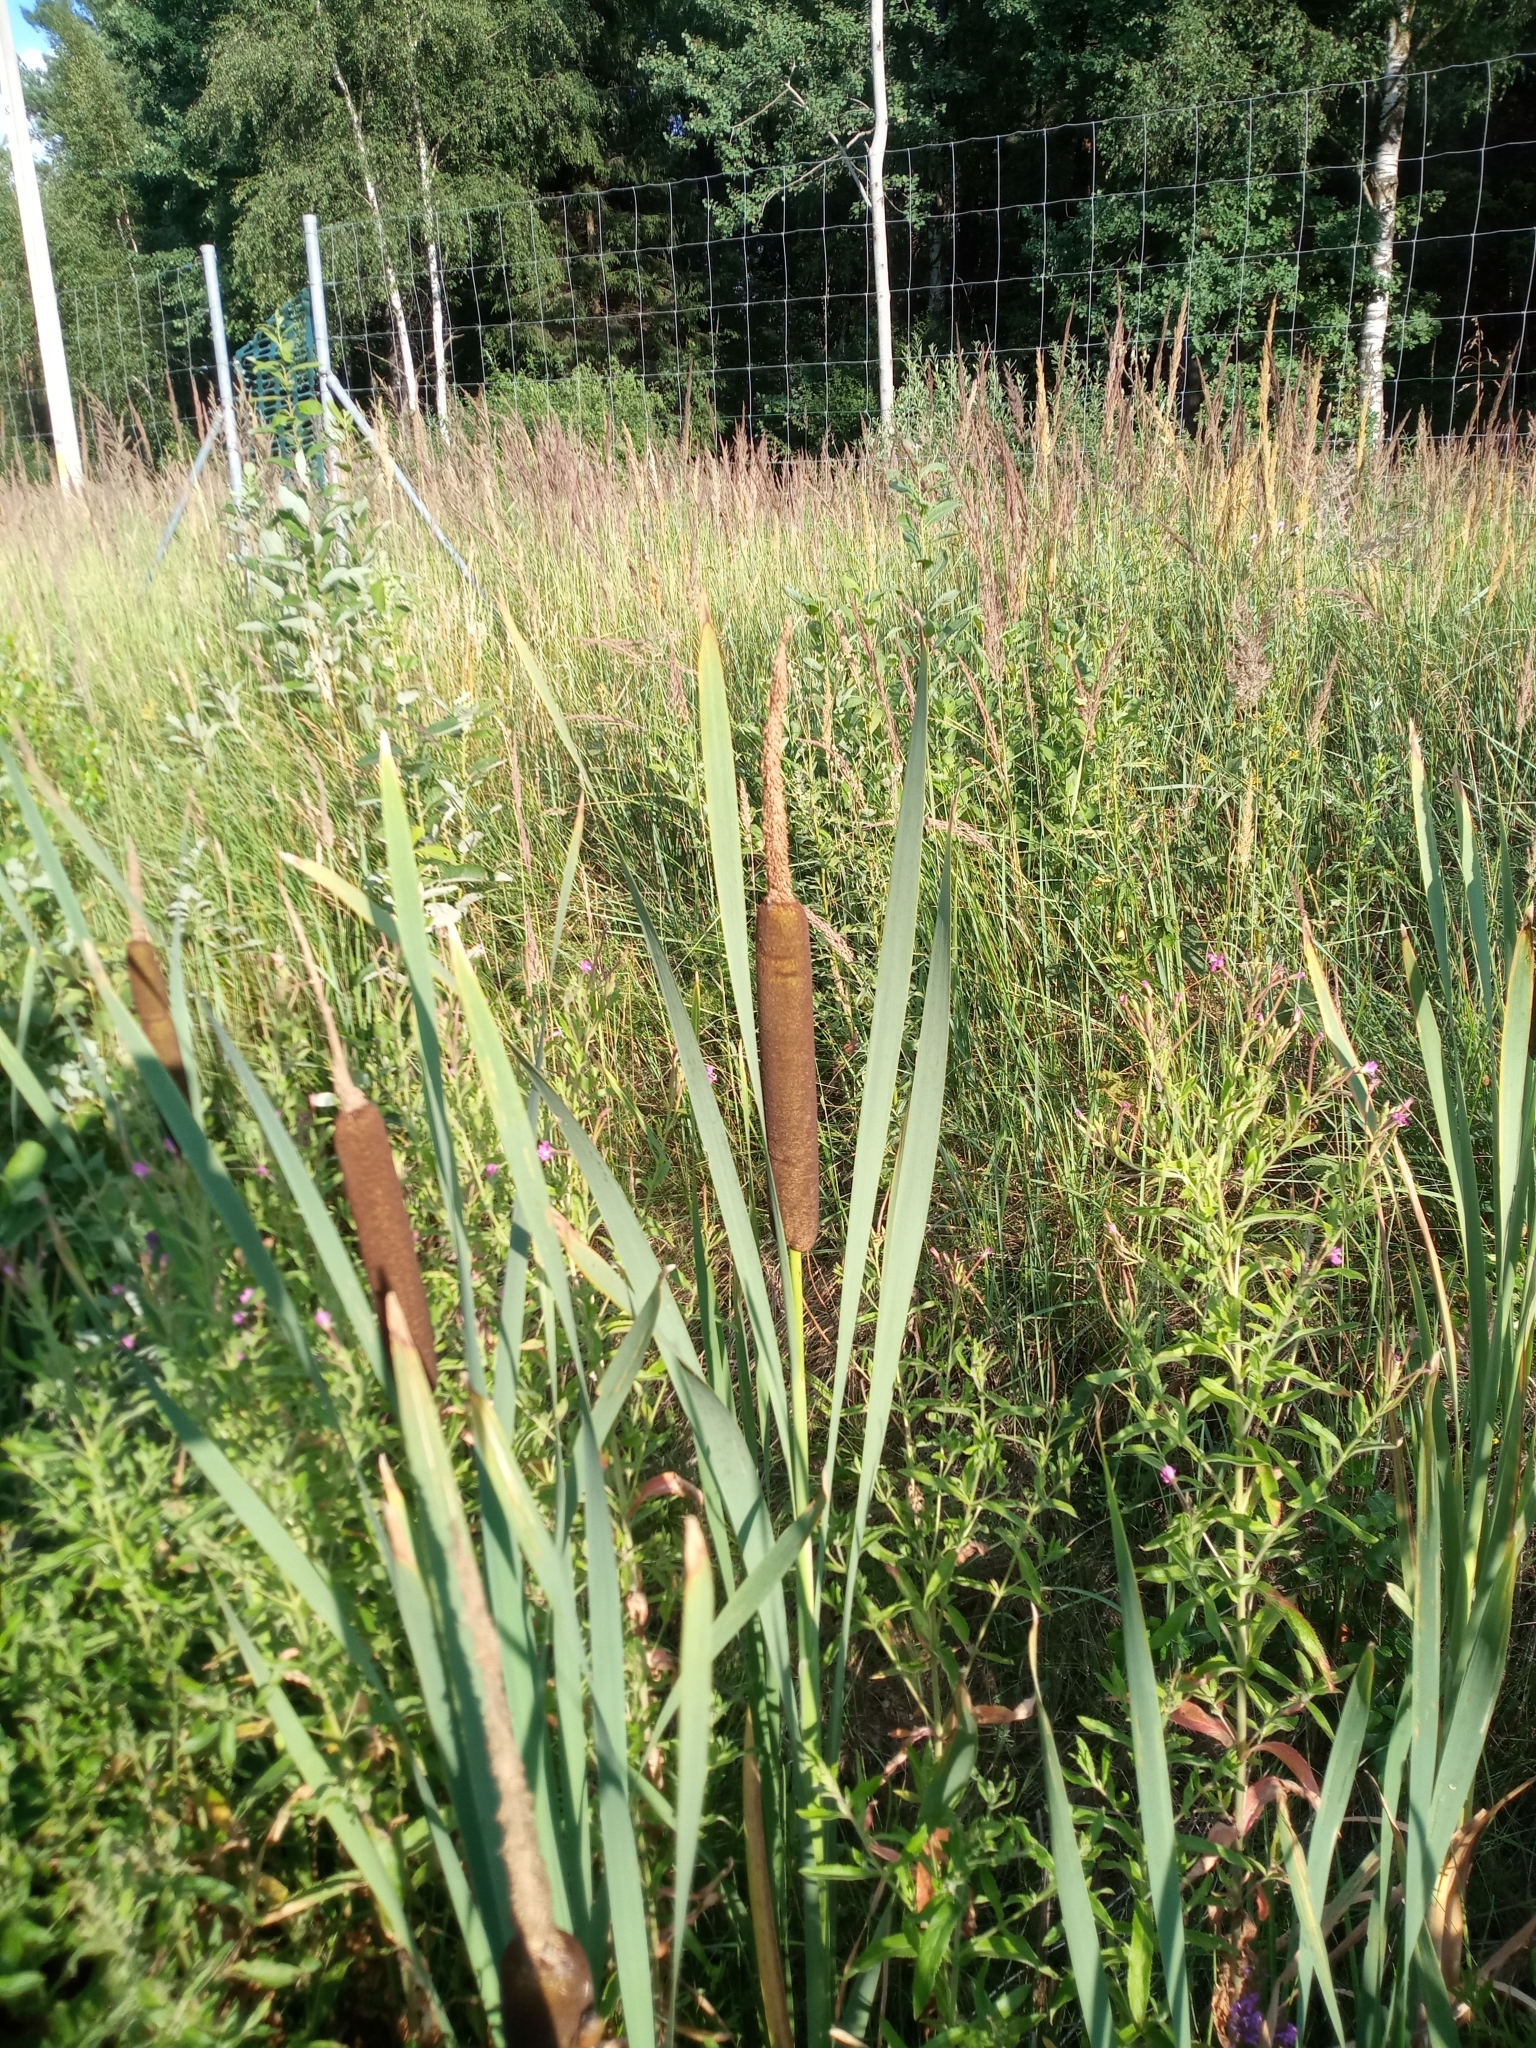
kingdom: Plantae
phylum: Tracheophyta
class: Liliopsida
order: Poales
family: Typhaceae
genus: Typha
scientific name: Typha latifolia
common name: Broadleaf cattail
